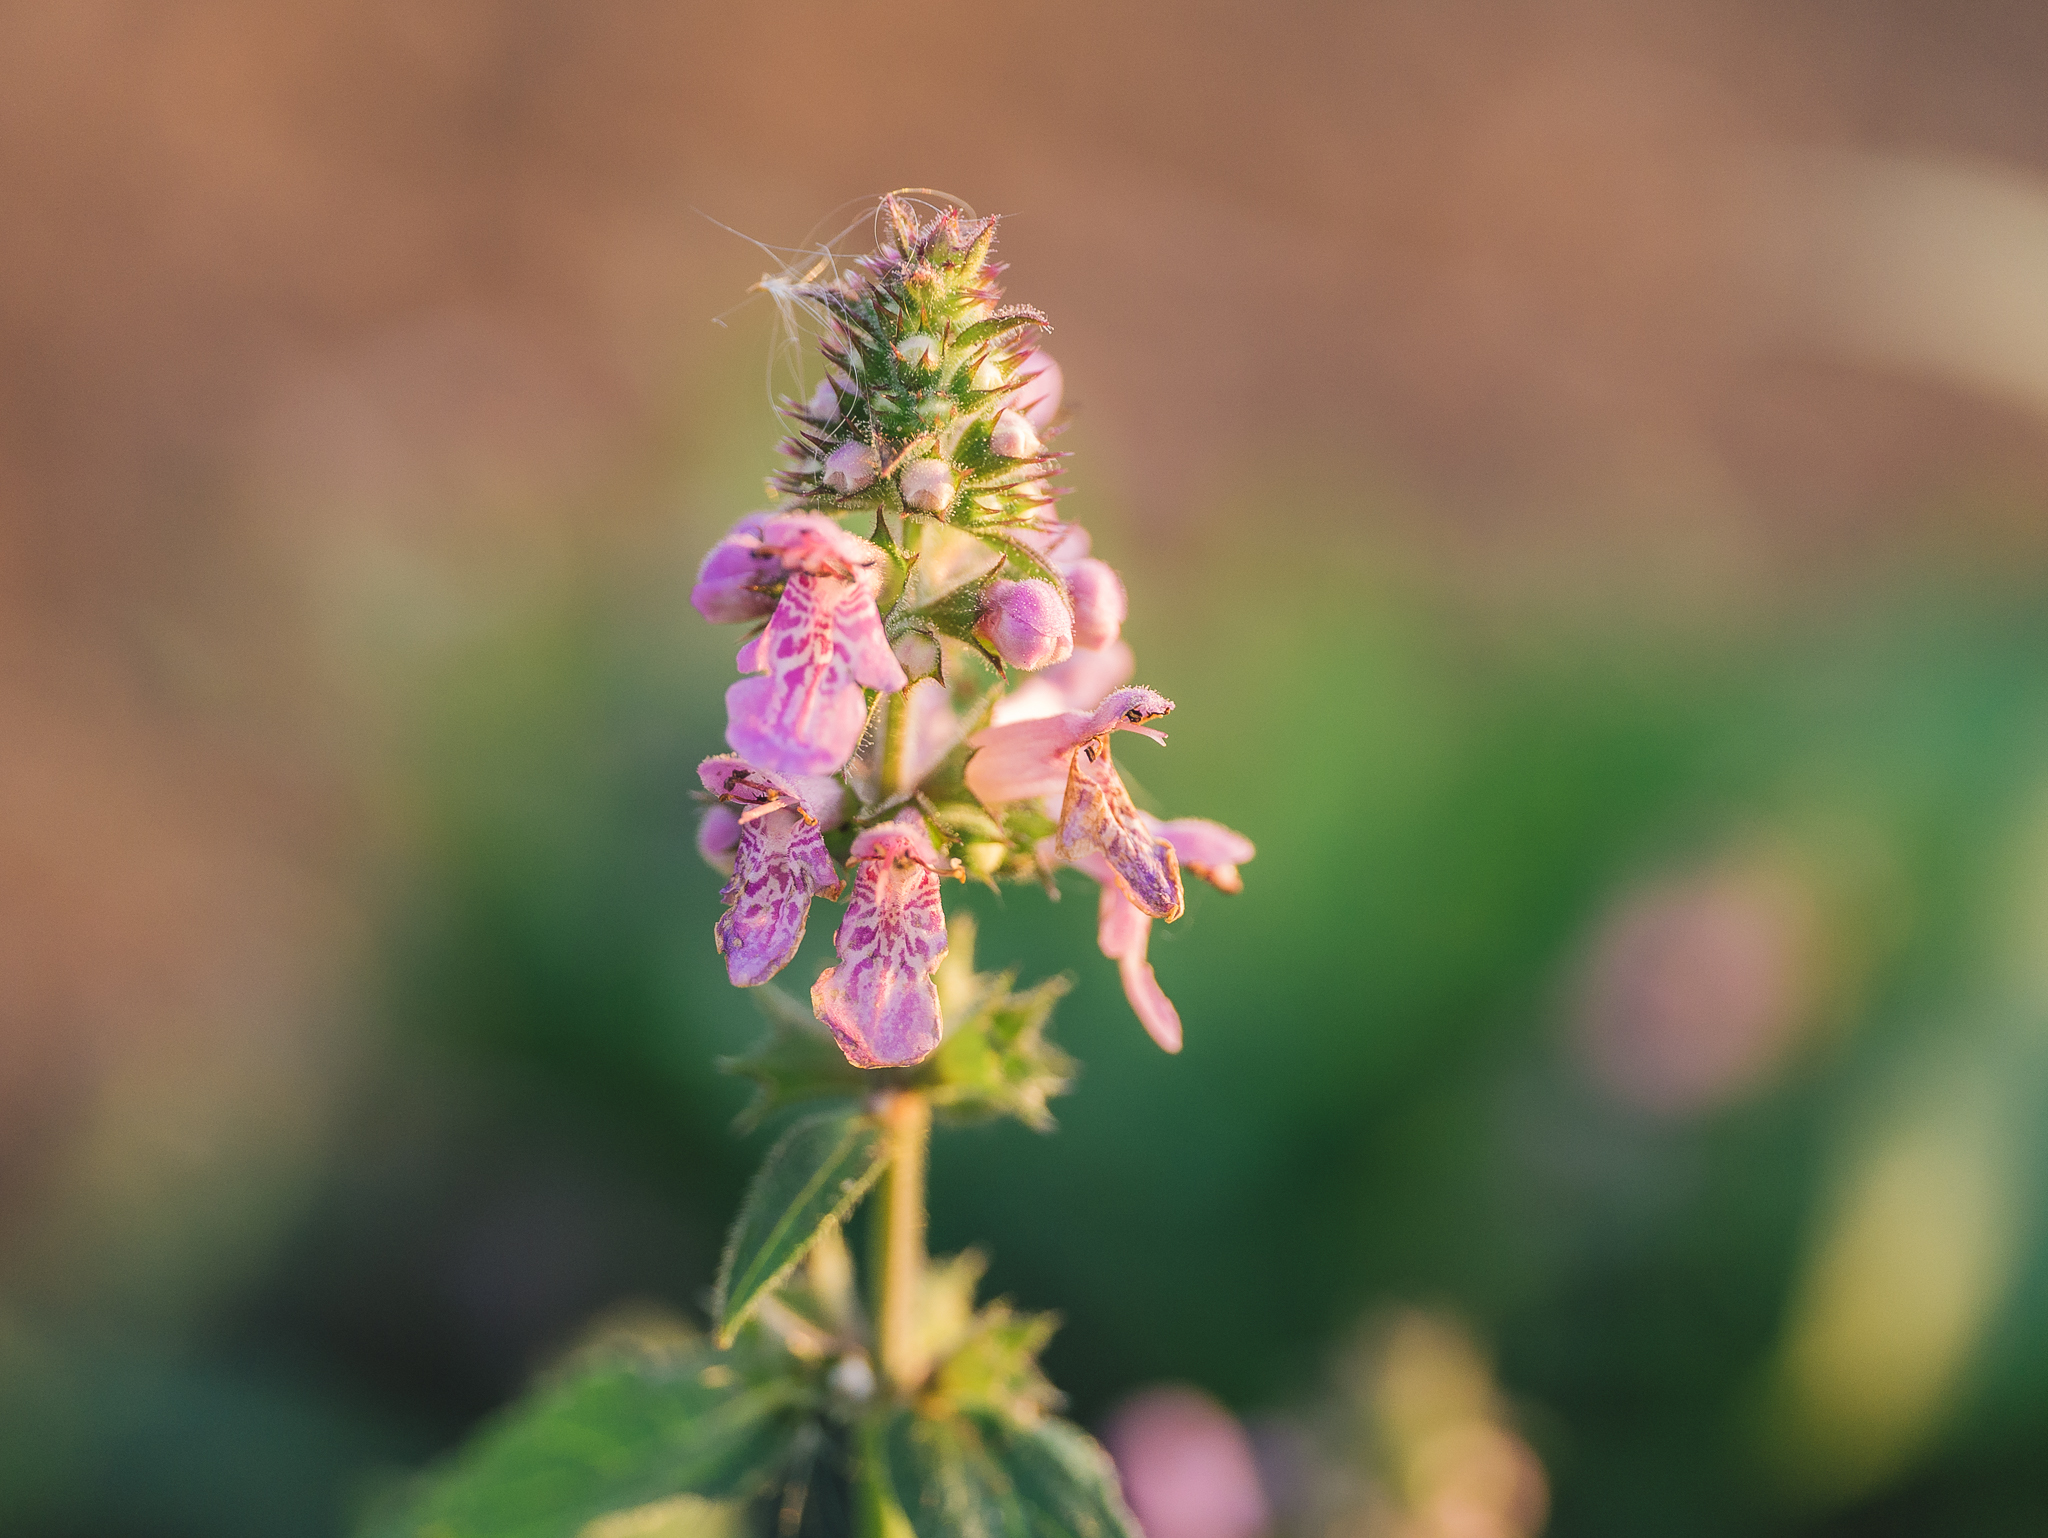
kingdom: Plantae
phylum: Tracheophyta
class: Magnoliopsida
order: Lamiales
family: Lamiaceae
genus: Stachys
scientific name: Stachys palustris
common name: Marsh woundwort
